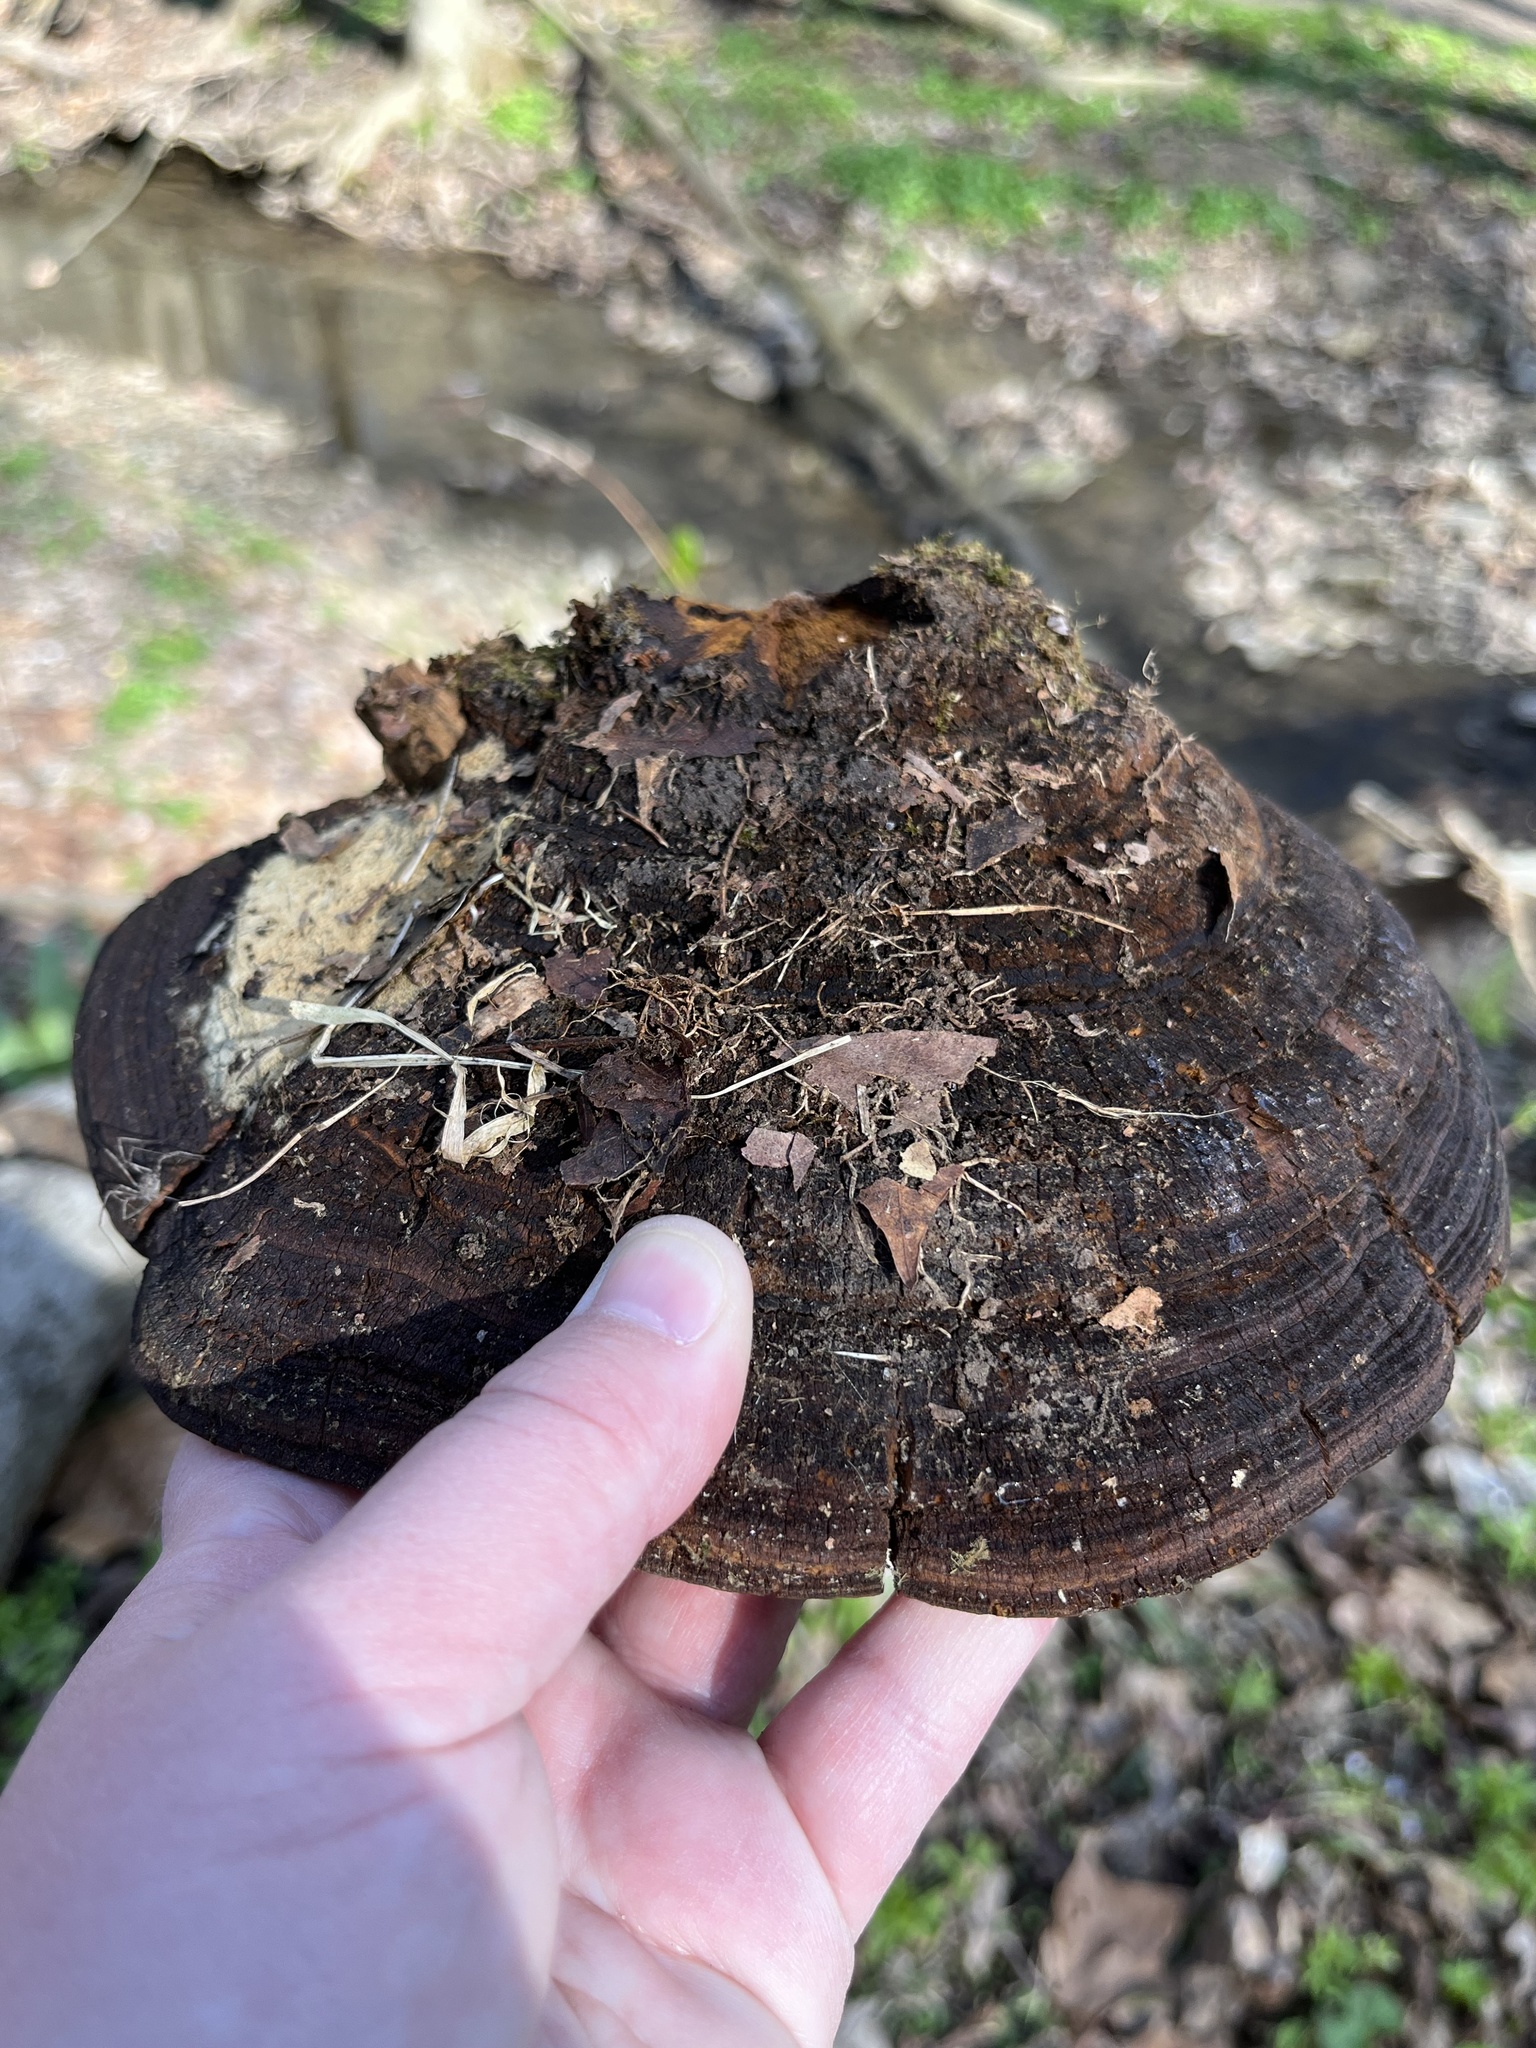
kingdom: Fungi
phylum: Basidiomycota
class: Agaricomycetes
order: Hymenochaetales
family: Hymenochaetaceae
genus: Phellinus
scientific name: Phellinus robiniae
